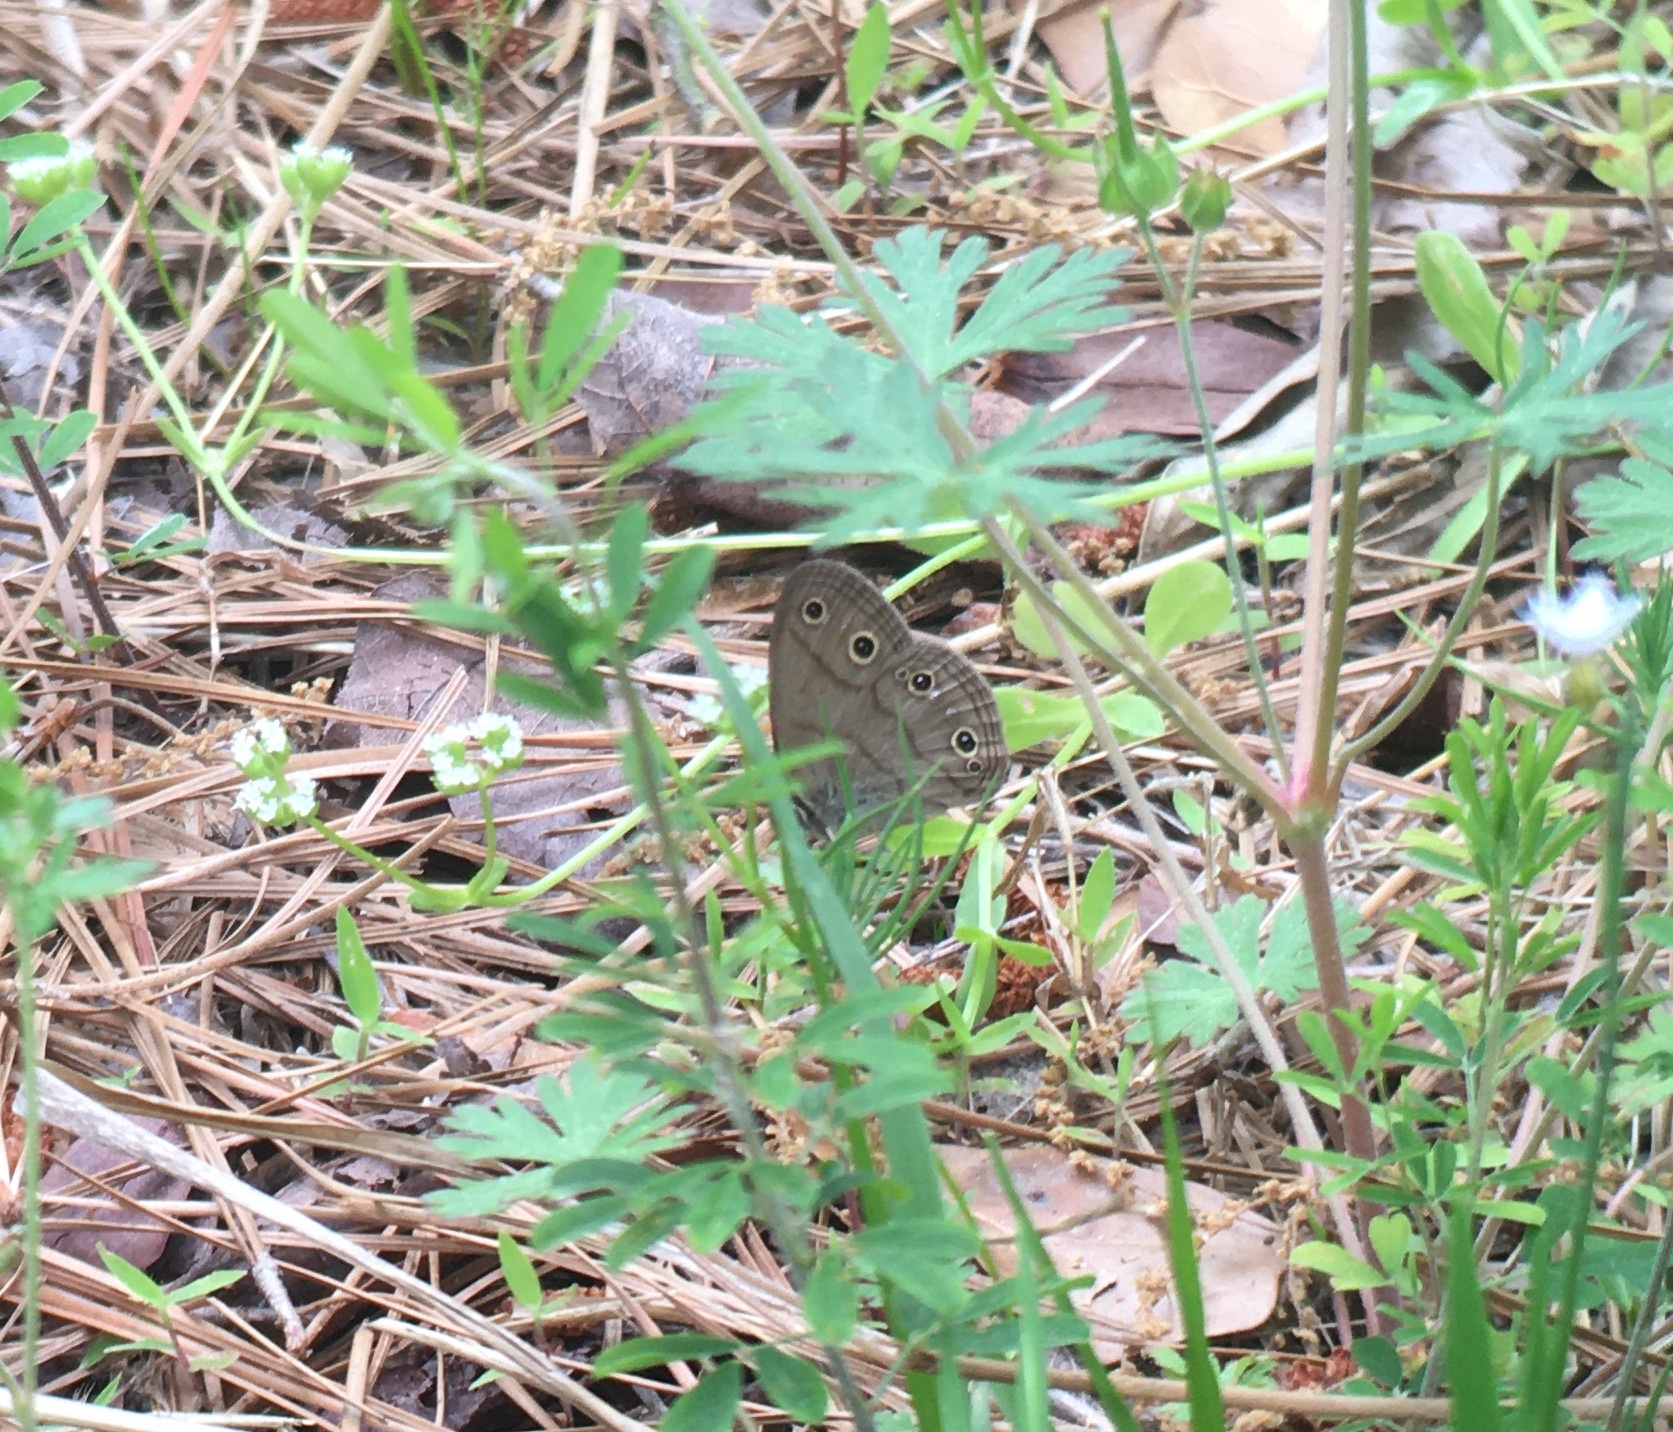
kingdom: Animalia
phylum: Arthropoda
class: Insecta
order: Lepidoptera
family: Nymphalidae
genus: Euptychia
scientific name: Euptychia cymela
